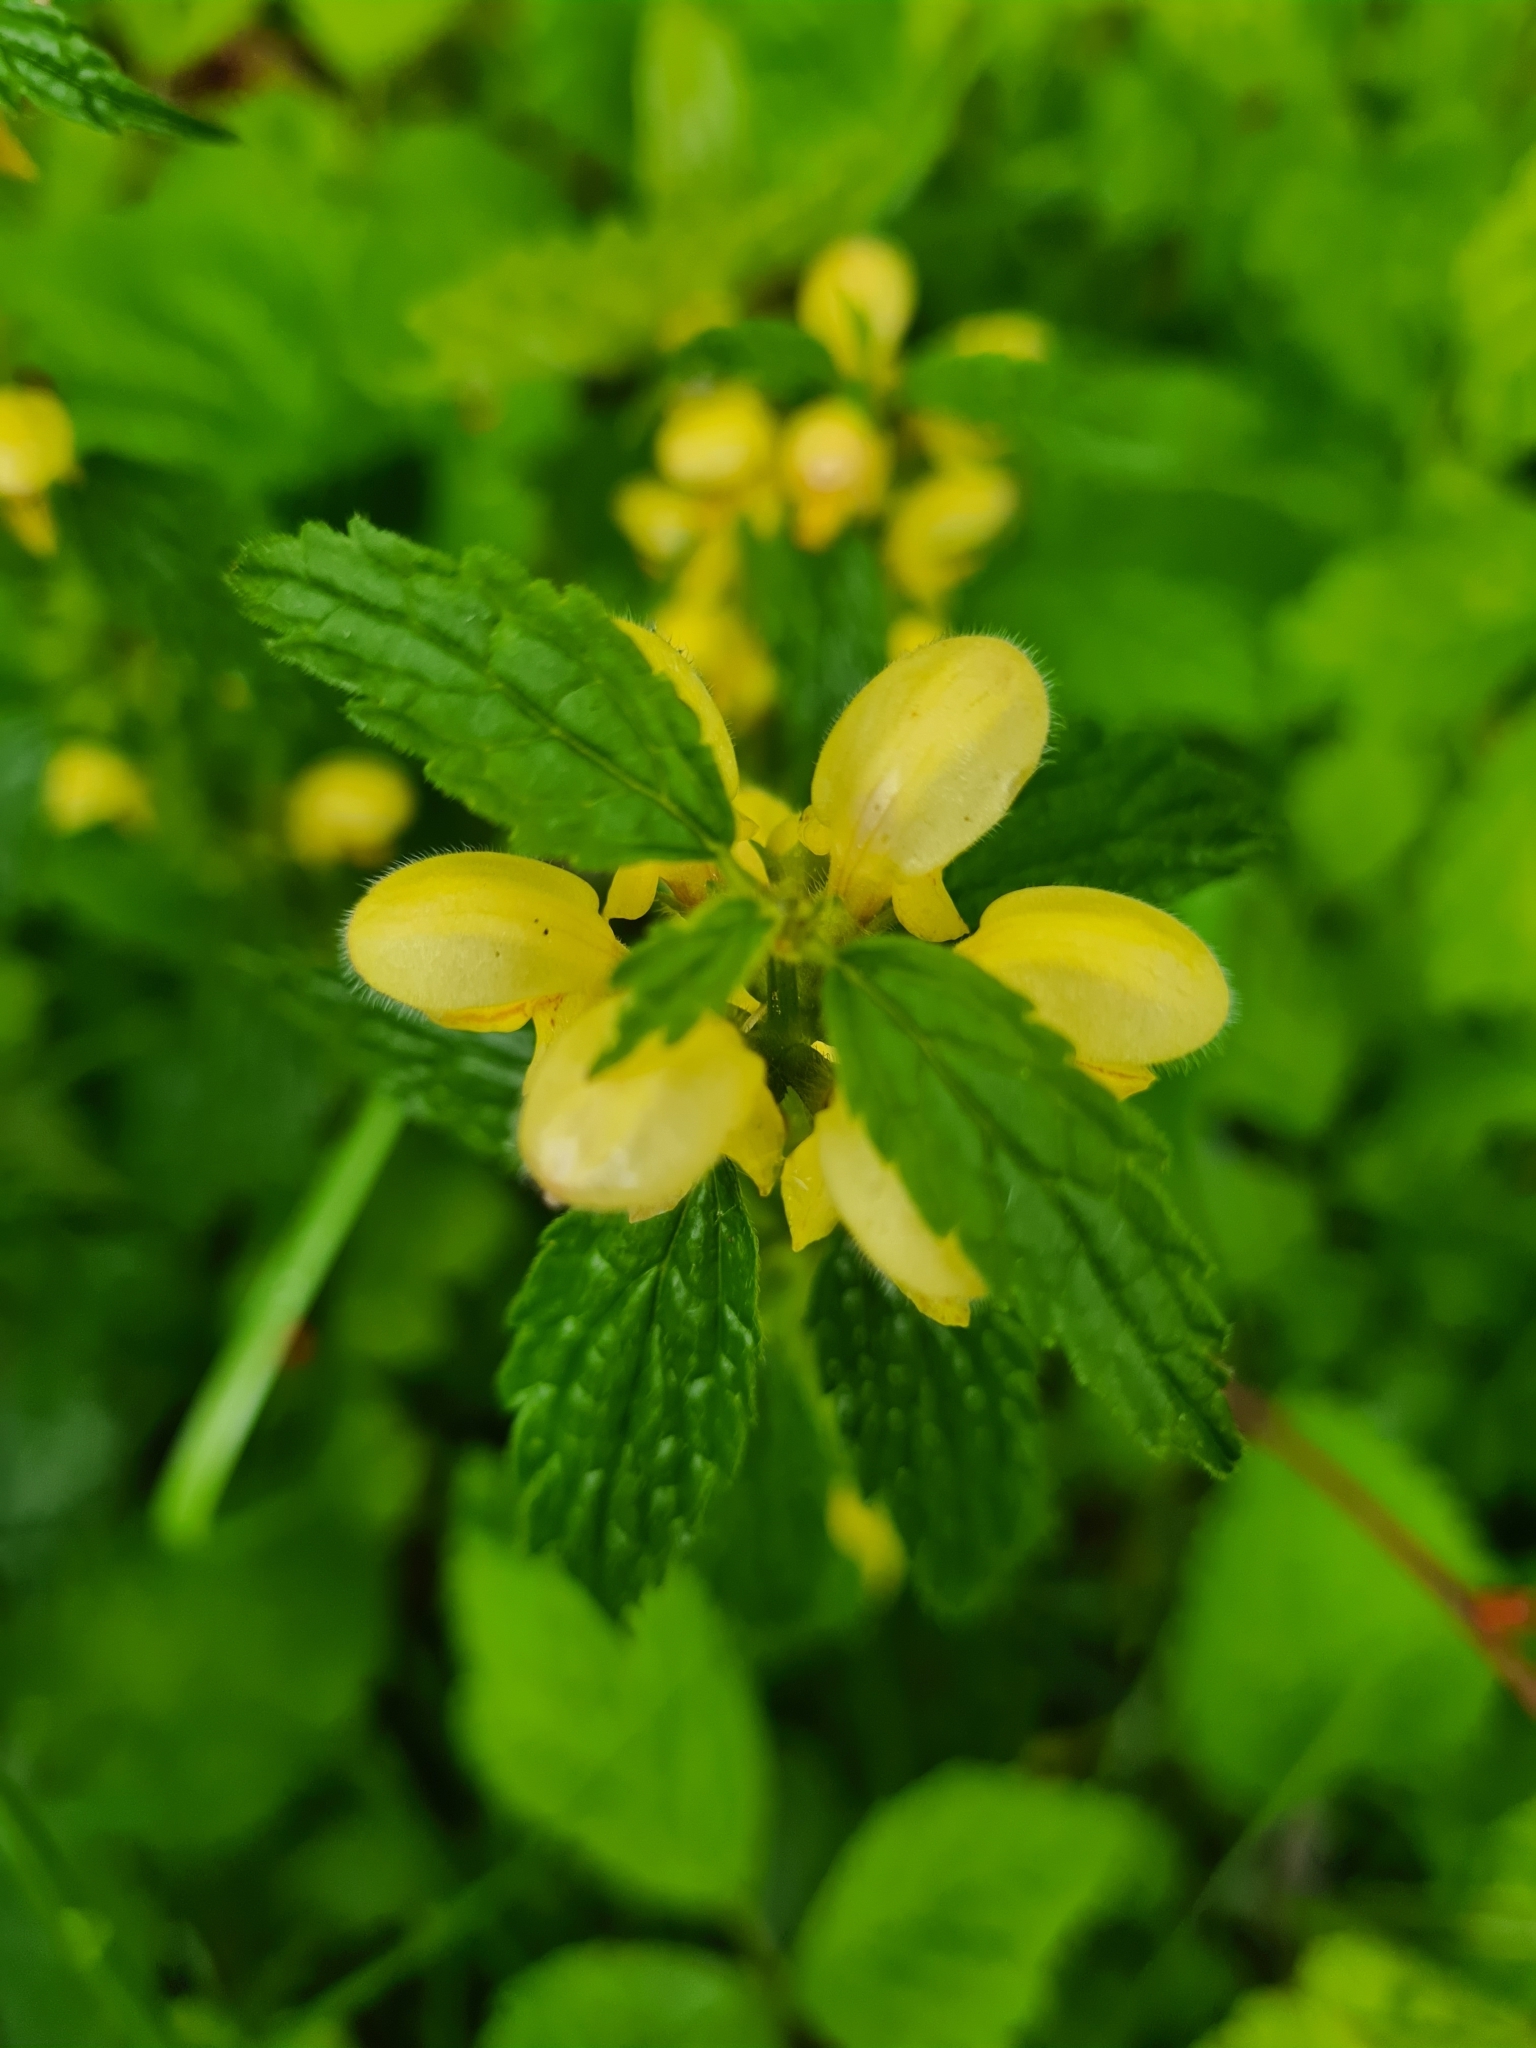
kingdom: Plantae
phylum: Tracheophyta
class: Magnoliopsida
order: Lamiales
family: Lamiaceae
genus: Lamium
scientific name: Lamium galeobdolon
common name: Yellow archangel
